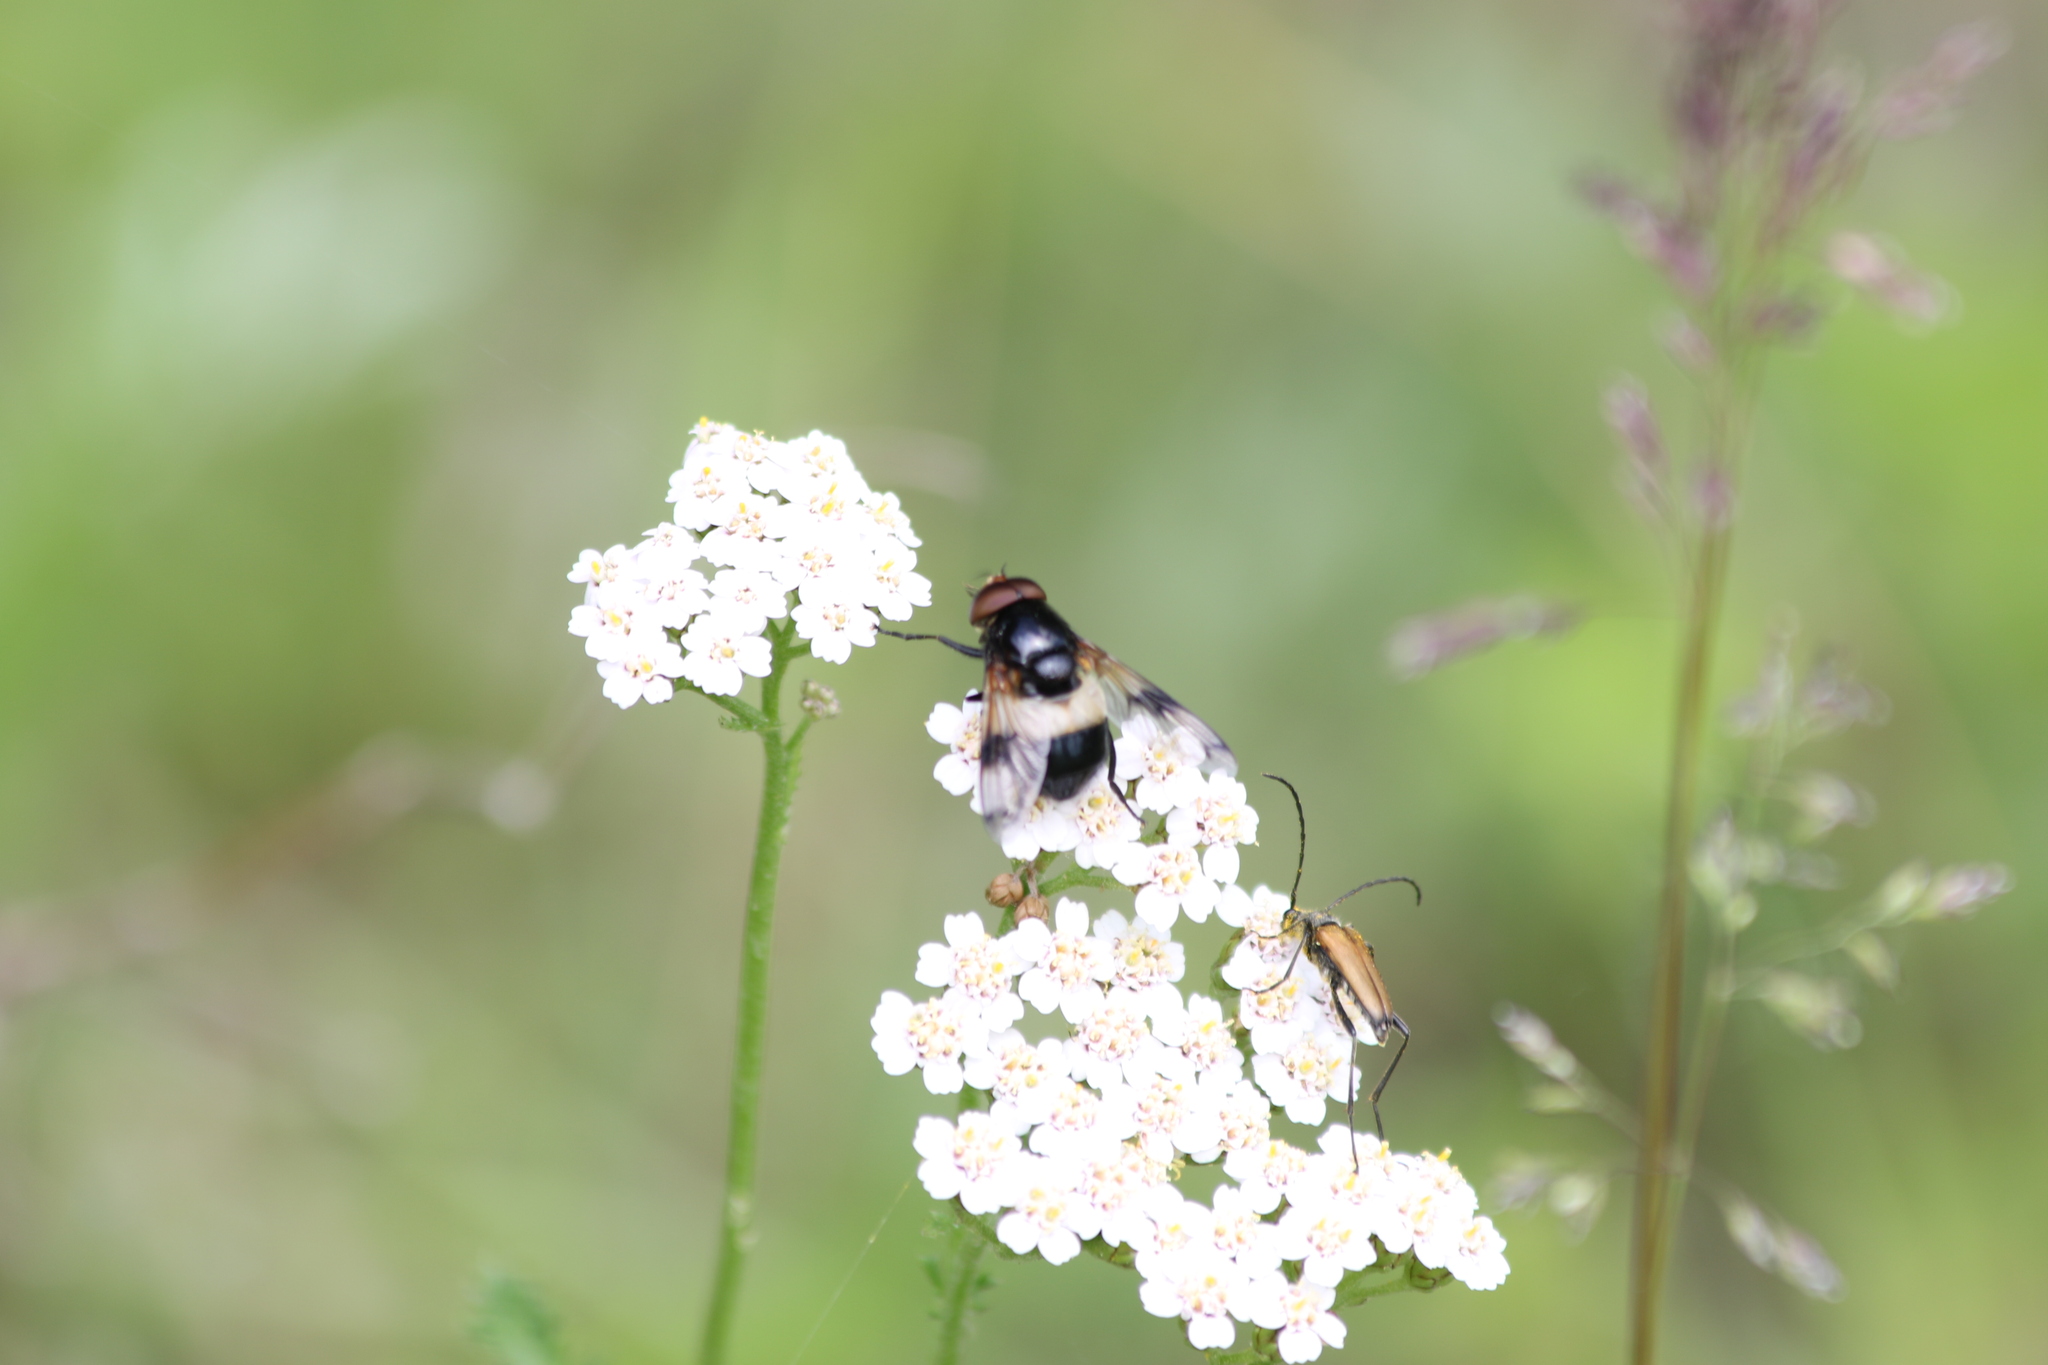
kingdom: Animalia
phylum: Arthropoda
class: Insecta
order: Diptera
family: Syrphidae
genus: Volucella
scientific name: Volucella pellucens
